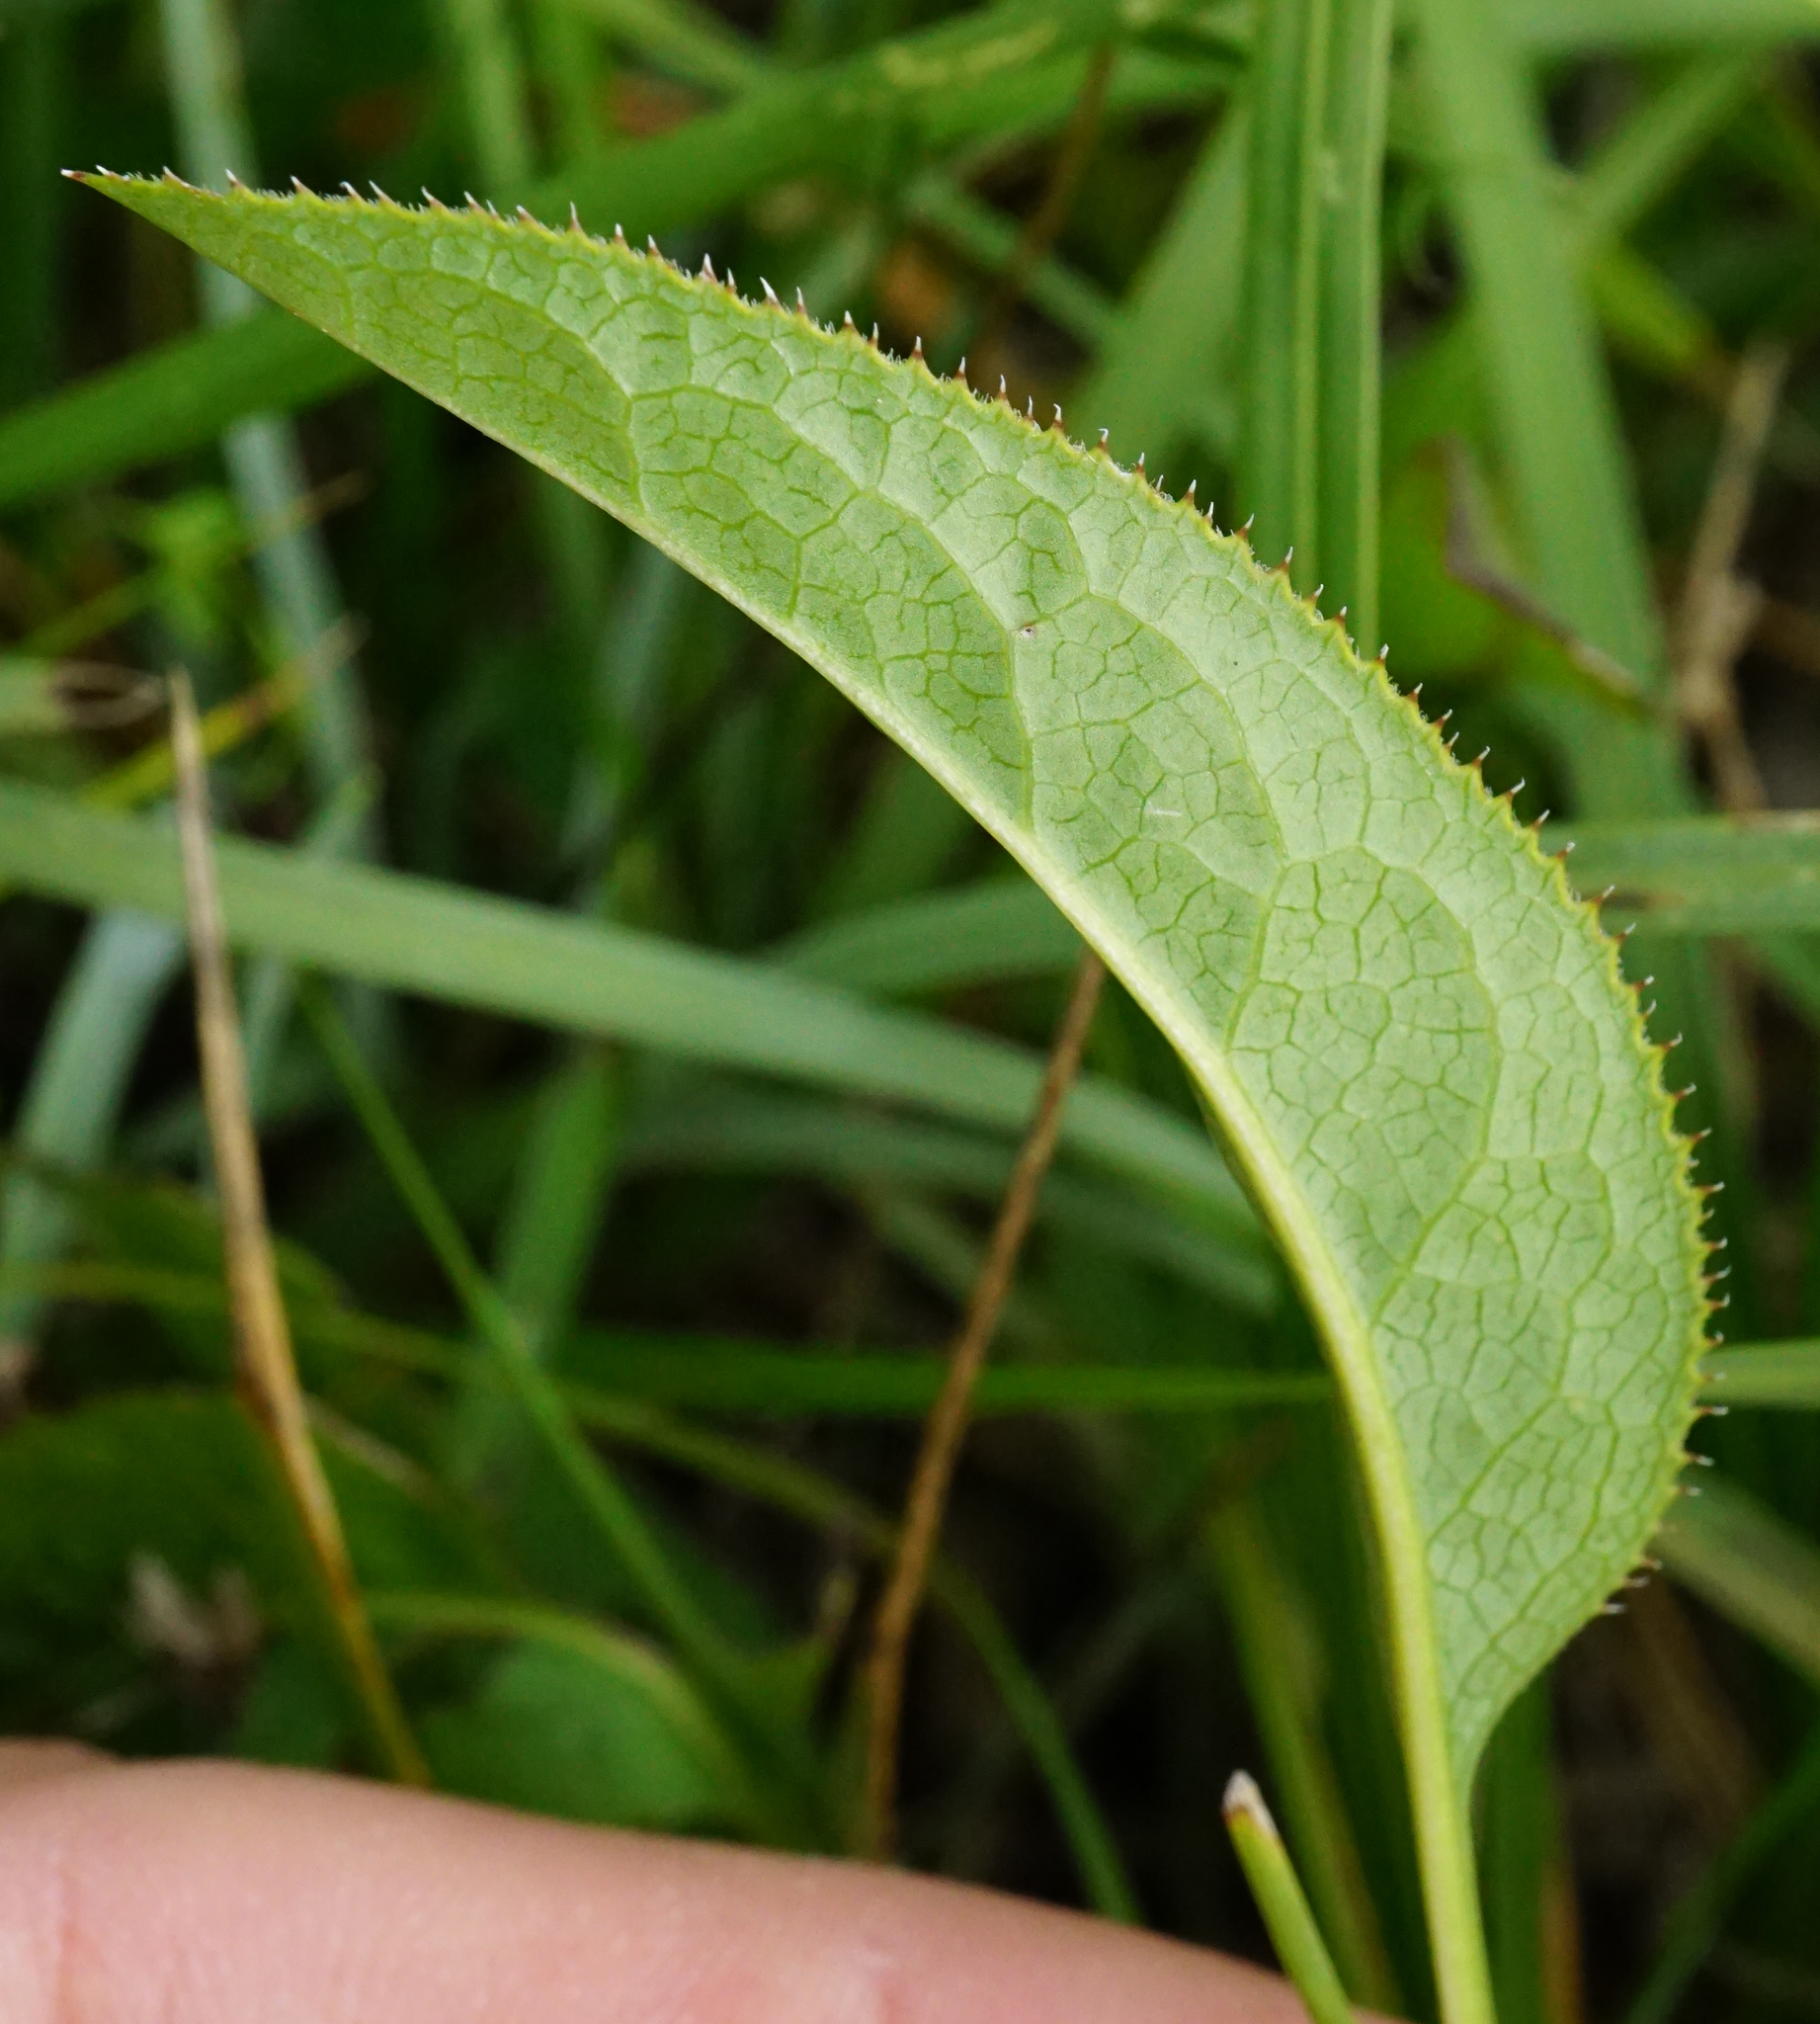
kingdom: Plantae
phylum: Tracheophyta
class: Magnoliopsida
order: Asterales
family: Asteraceae
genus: Serratula
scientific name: Serratula tinctoria
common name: Saw-wort
